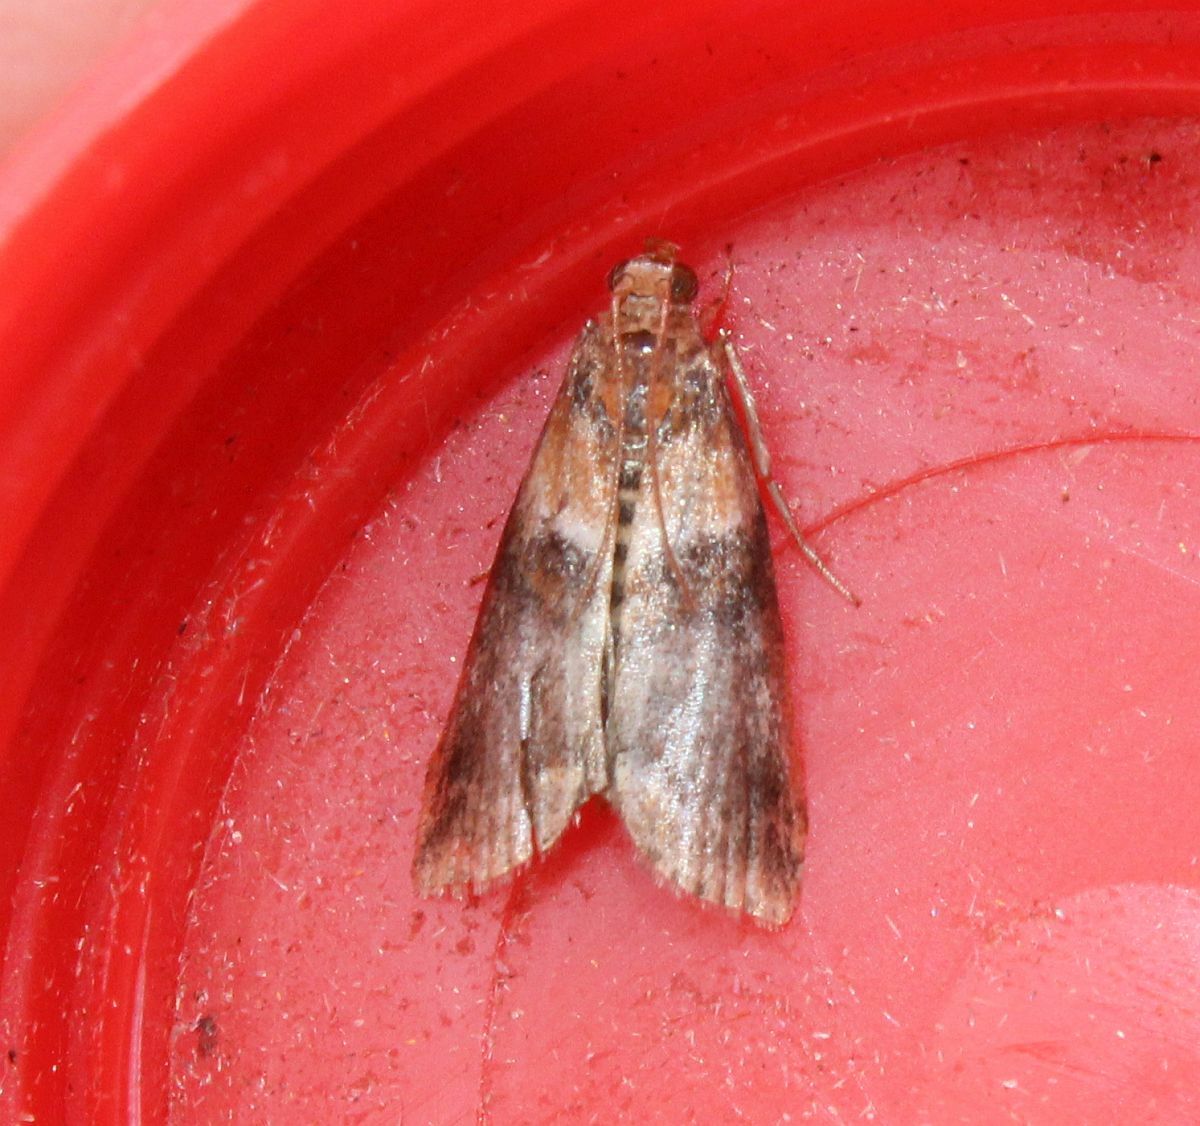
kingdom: Animalia
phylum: Arthropoda
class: Insecta
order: Lepidoptera
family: Pyralidae
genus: Acrobasis
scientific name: Acrobasis repandana
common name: Warted knot-horn
